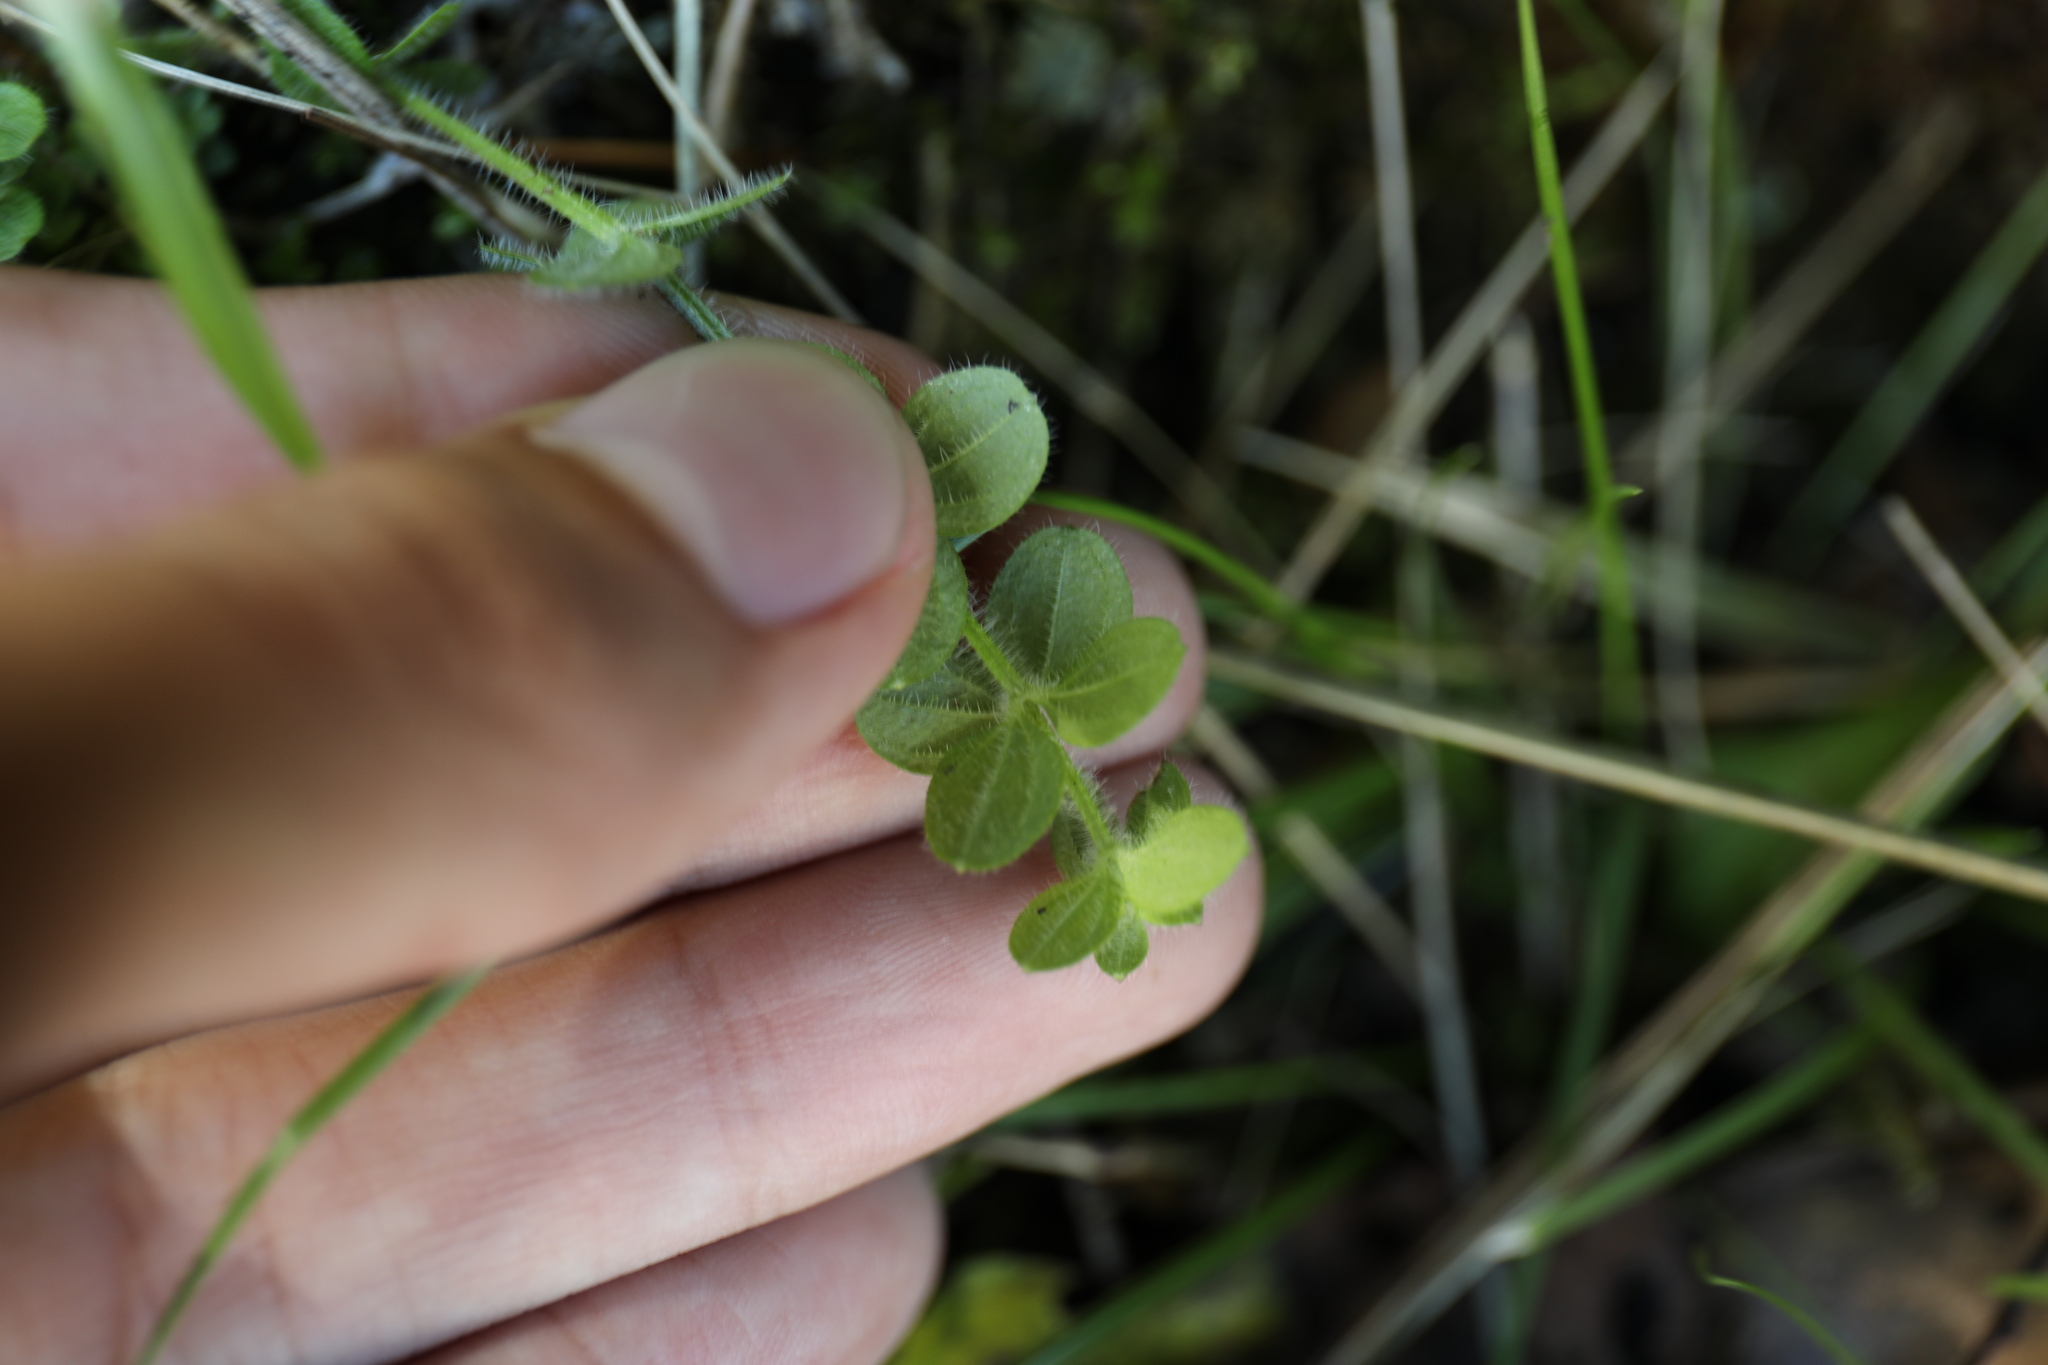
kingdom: Plantae
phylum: Tracheophyta
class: Magnoliopsida
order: Gentianales
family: Rubiaceae
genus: Galium
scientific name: Galium formosense
